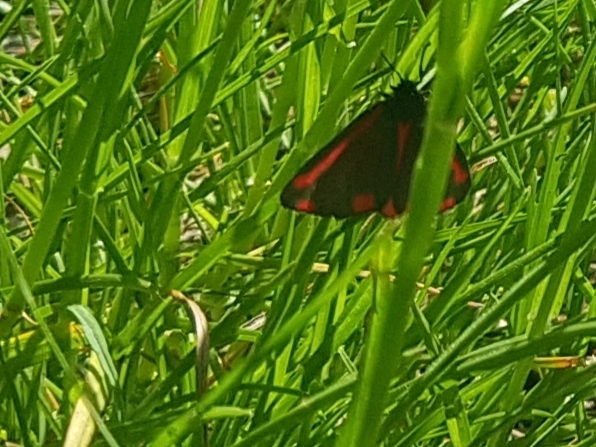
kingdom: Animalia
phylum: Arthropoda
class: Insecta
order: Lepidoptera
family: Erebidae
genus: Tyria
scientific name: Tyria jacobaeae
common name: Cinnabar
